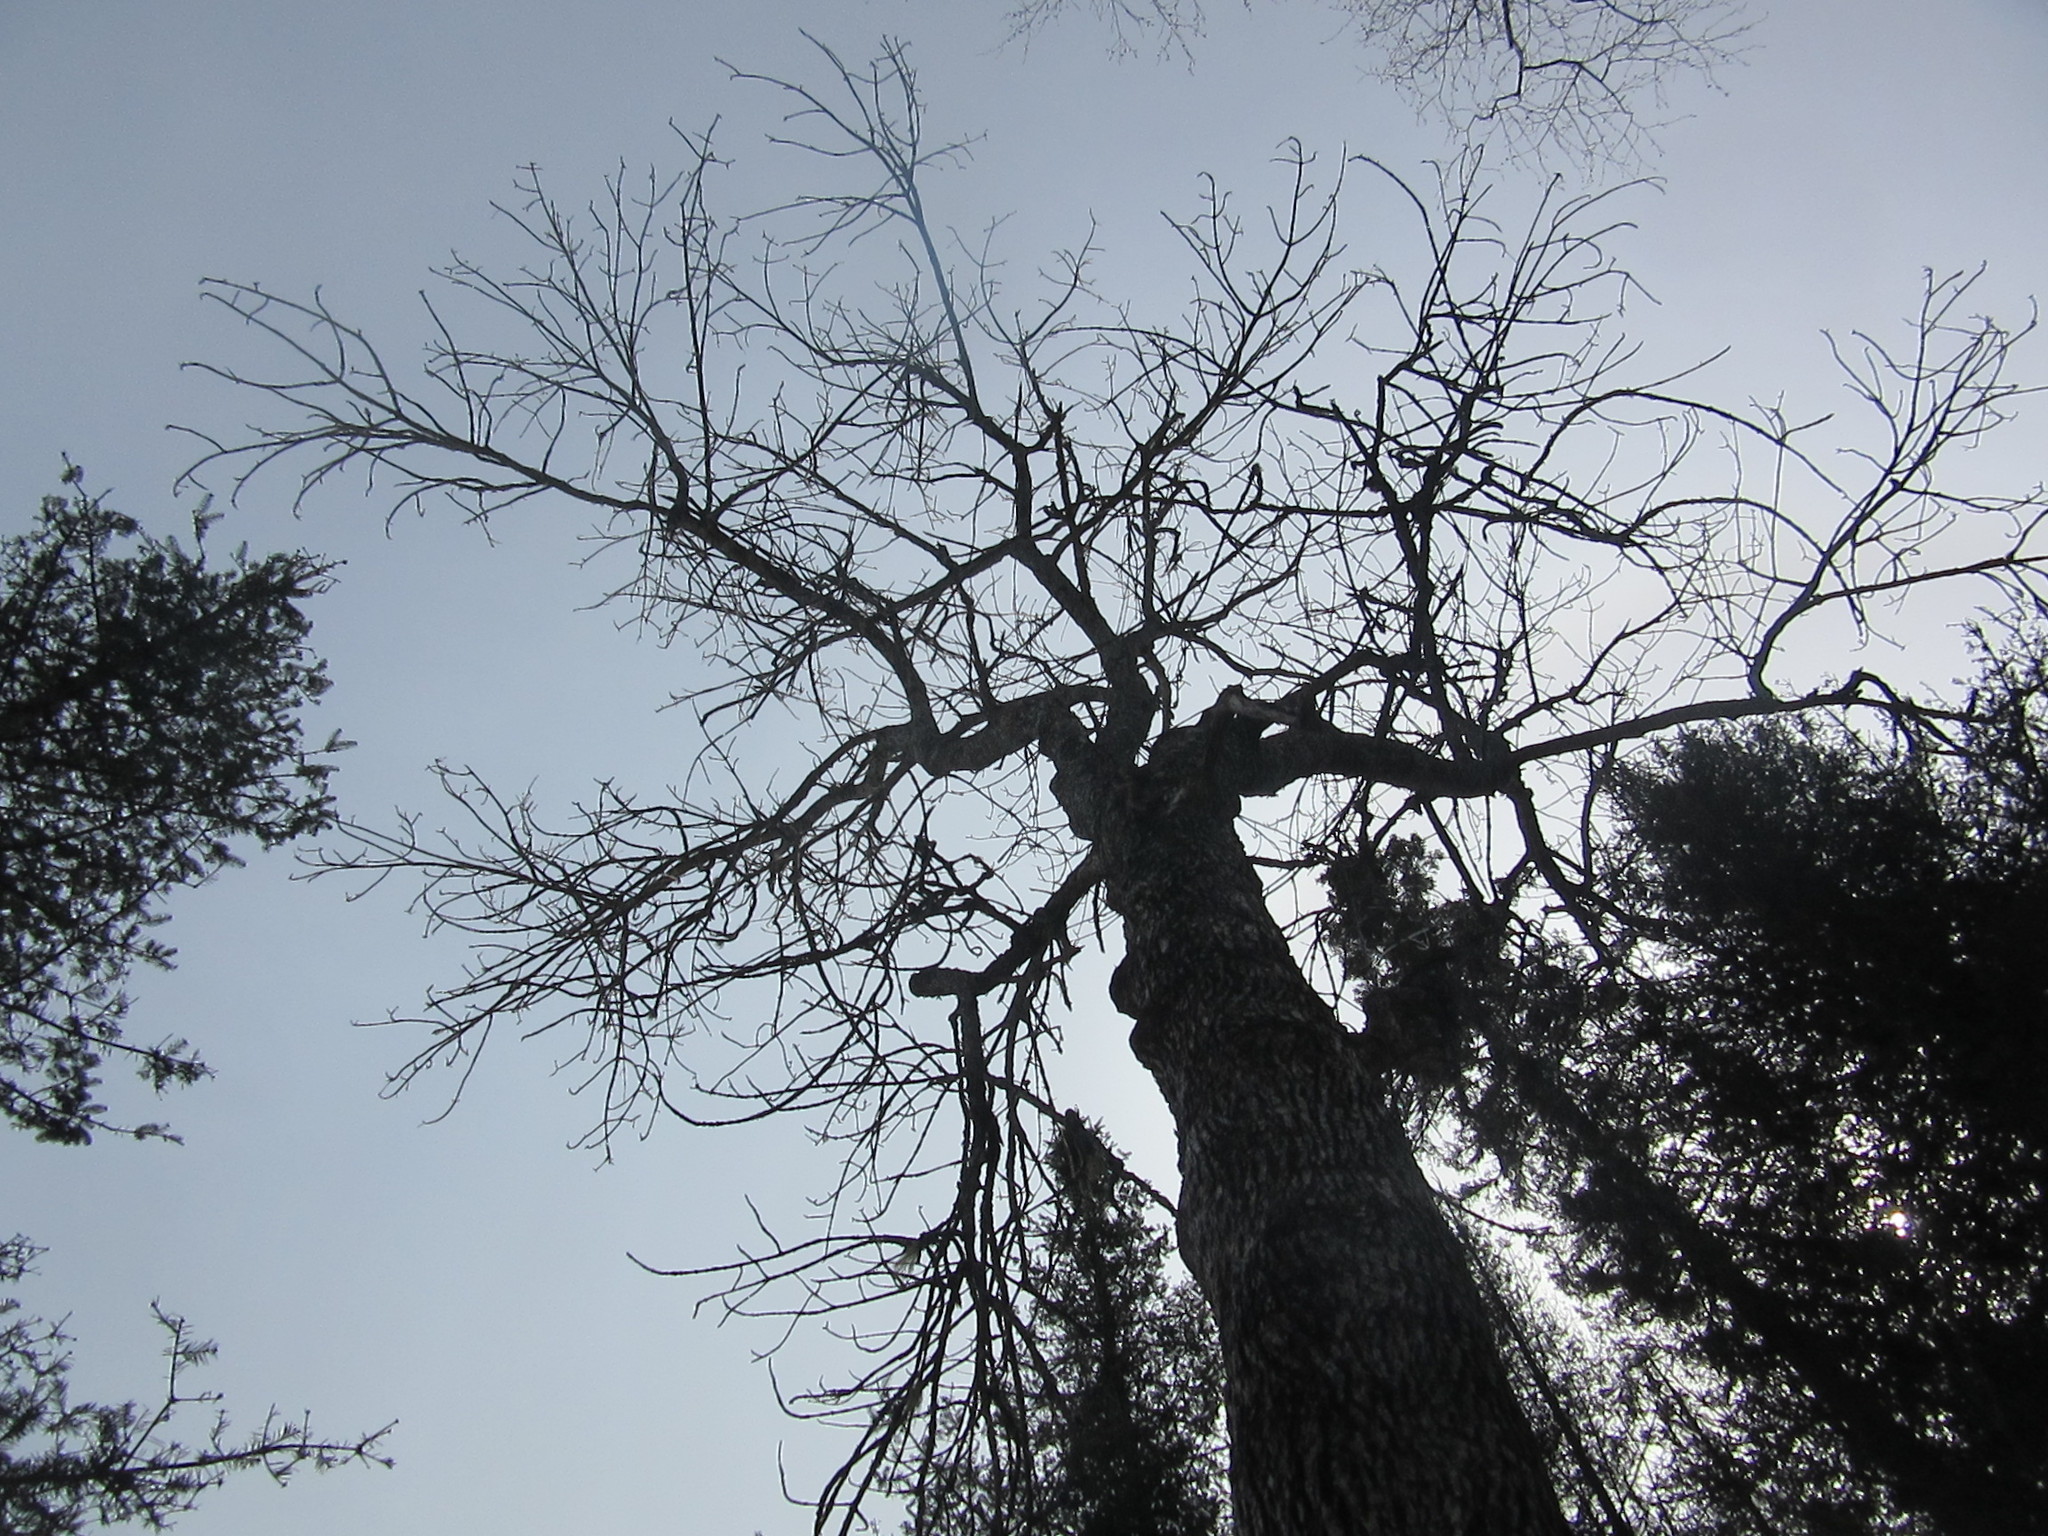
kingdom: Plantae
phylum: Tracheophyta
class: Magnoliopsida
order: Lamiales
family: Oleaceae
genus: Fraxinus
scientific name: Fraxinus nigra
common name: Black ash
